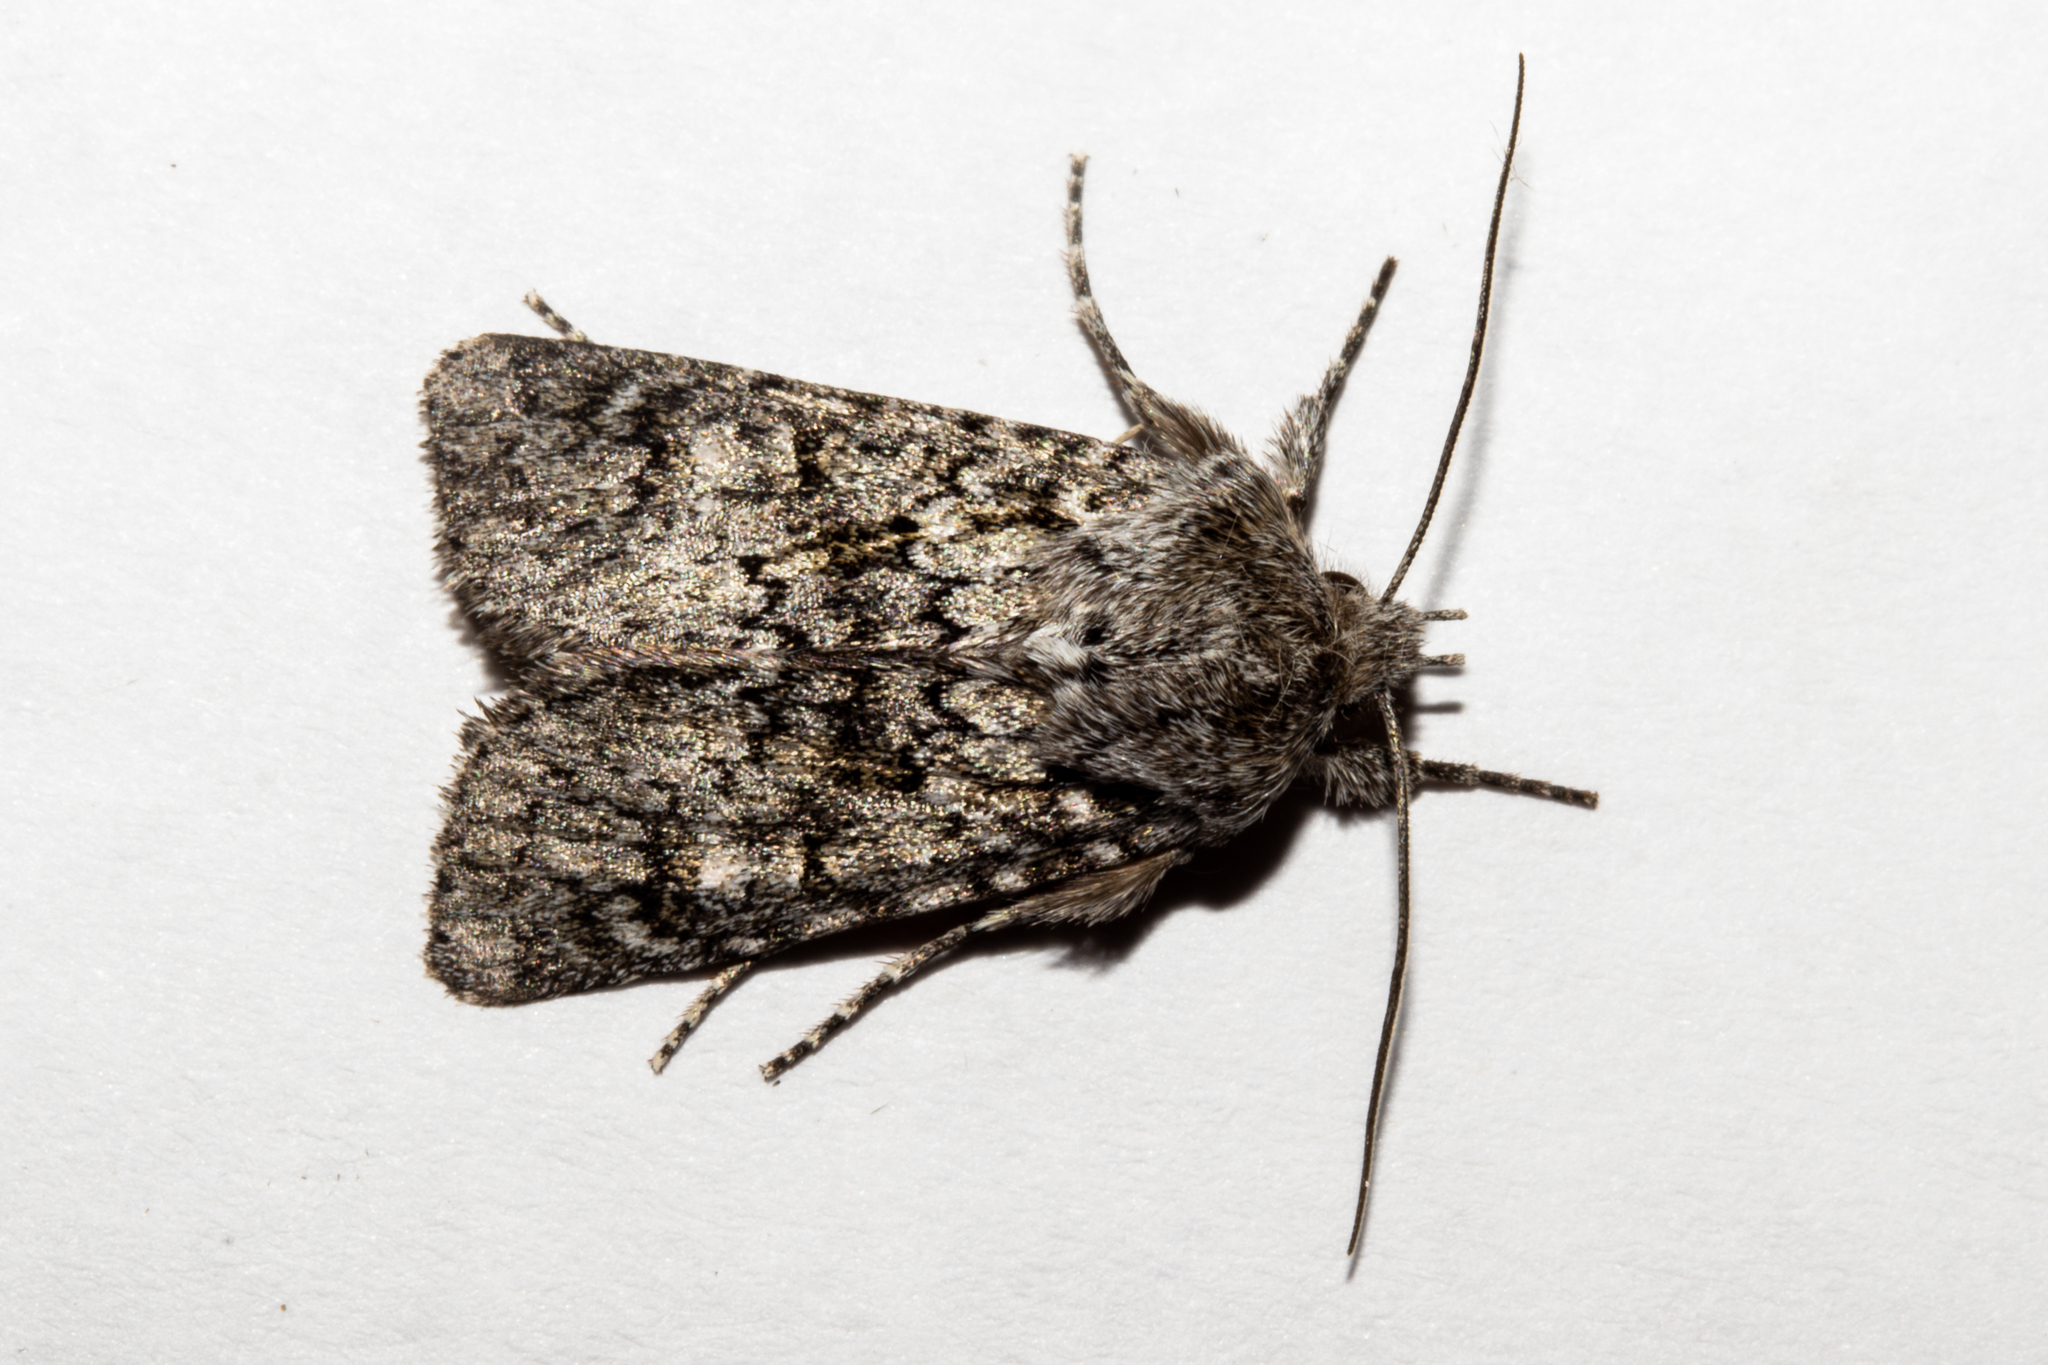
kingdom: Animalia
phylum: Arthropoda
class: Insecta
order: Lepidoptera
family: Noctuidae
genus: Physetica
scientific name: Physetica cucullina
